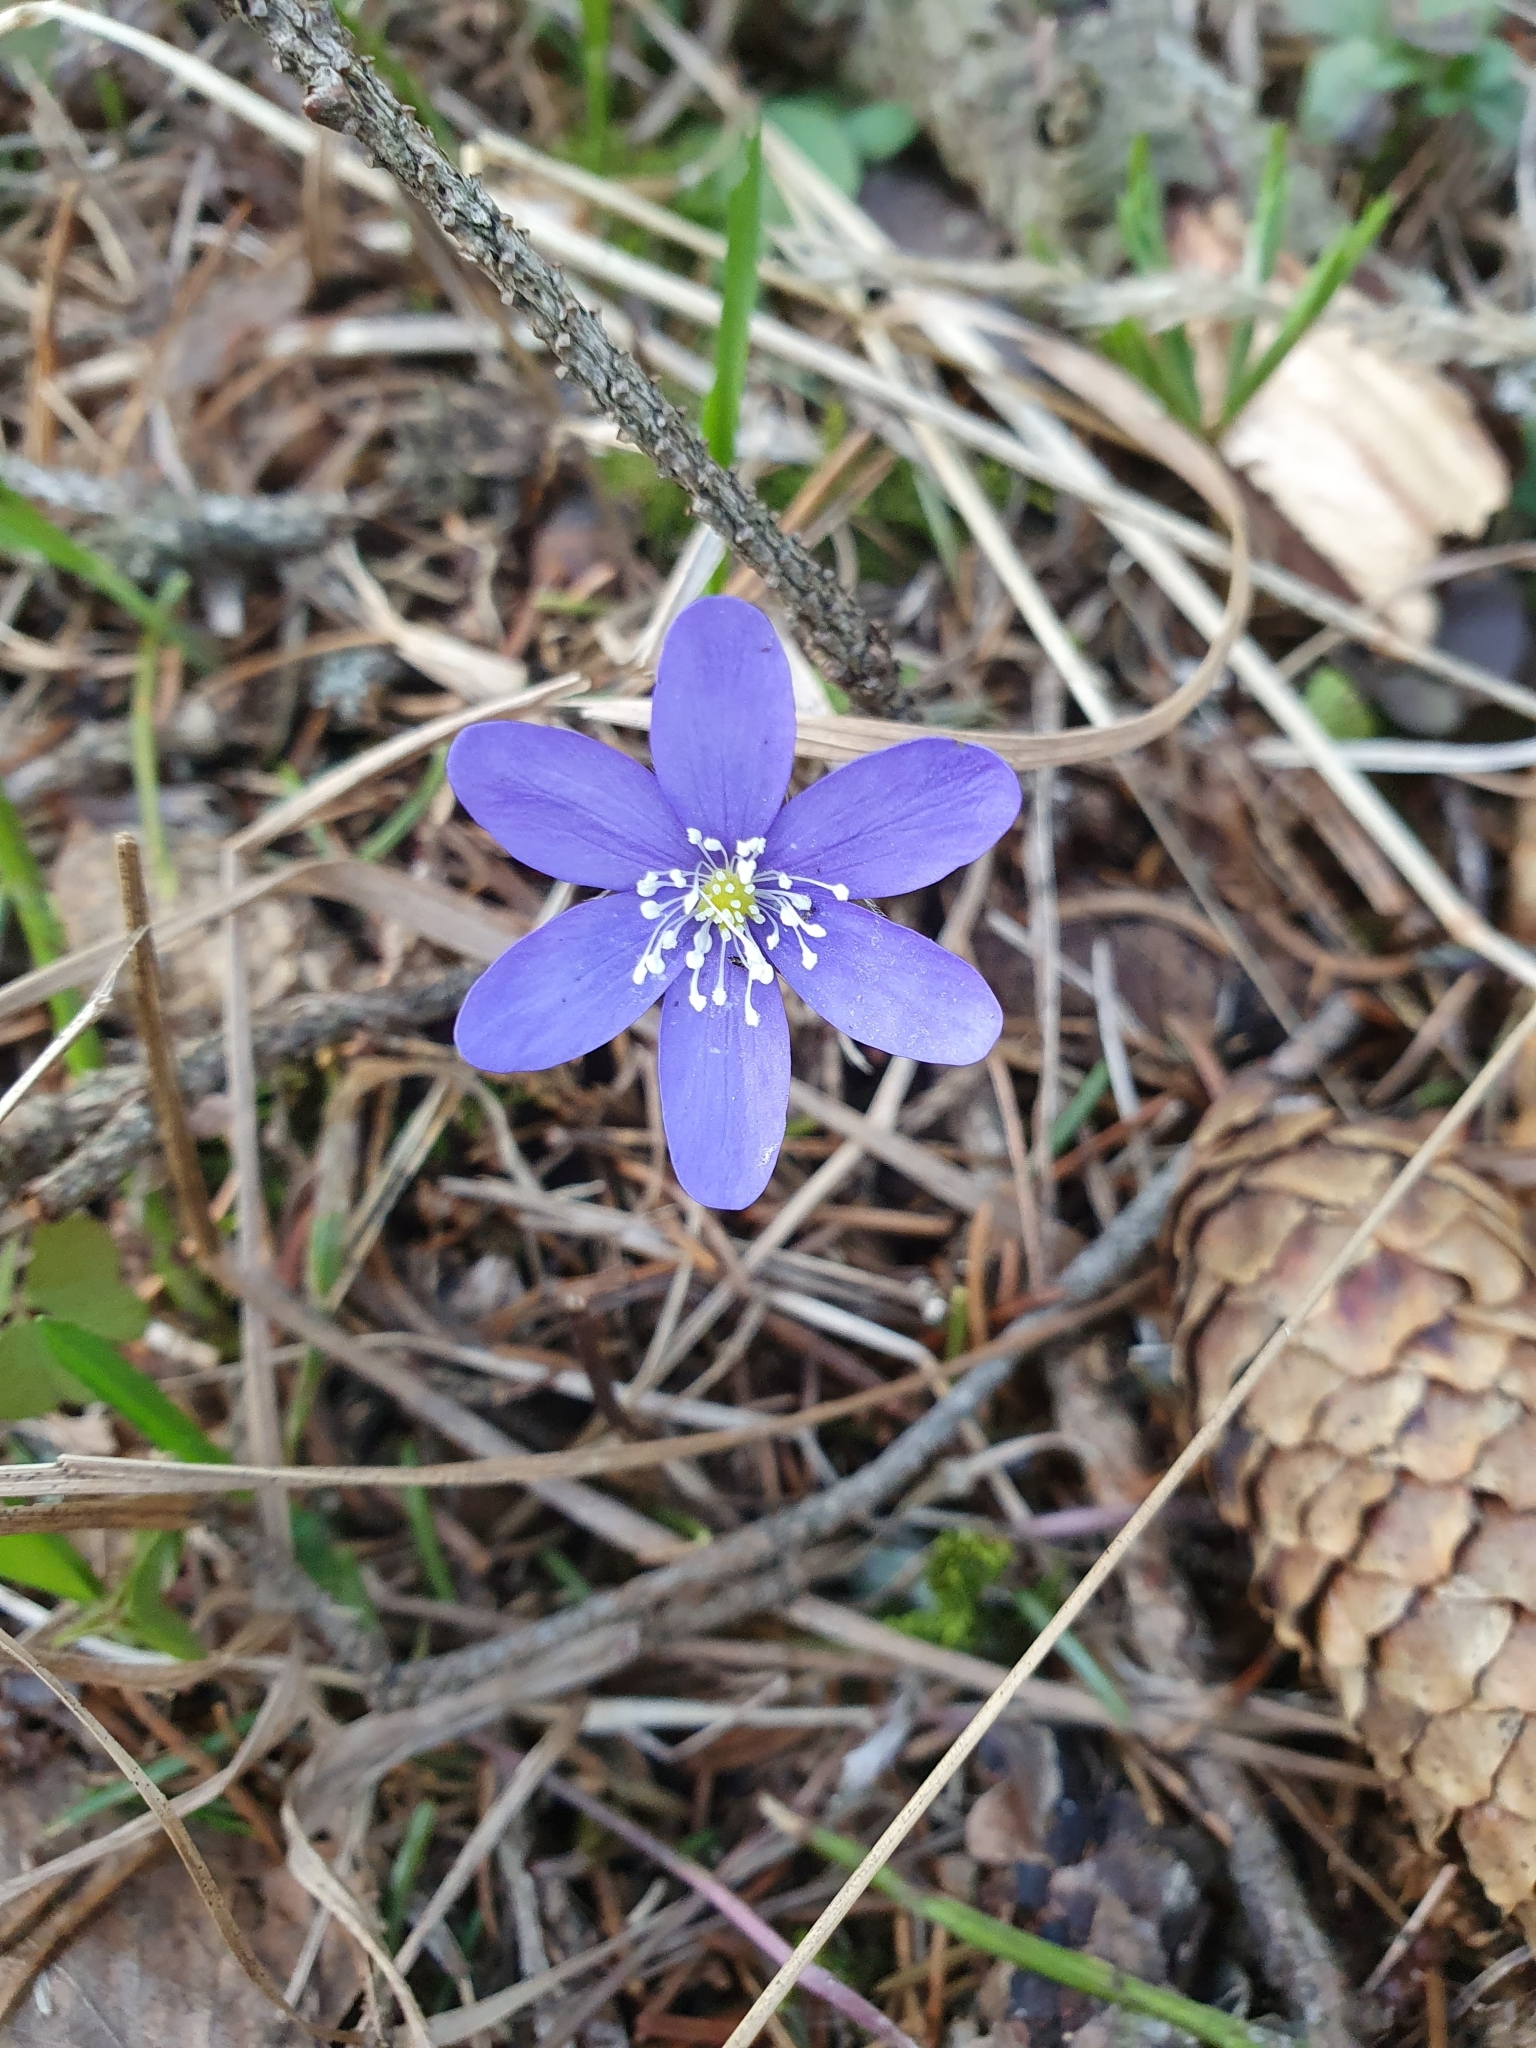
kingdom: Plantae
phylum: Tracheophyta
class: Magnoliopsida
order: Ranunculales
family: Ranunculaceae
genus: Hepatica
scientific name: Hepatica nobilis
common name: Liverleaf
